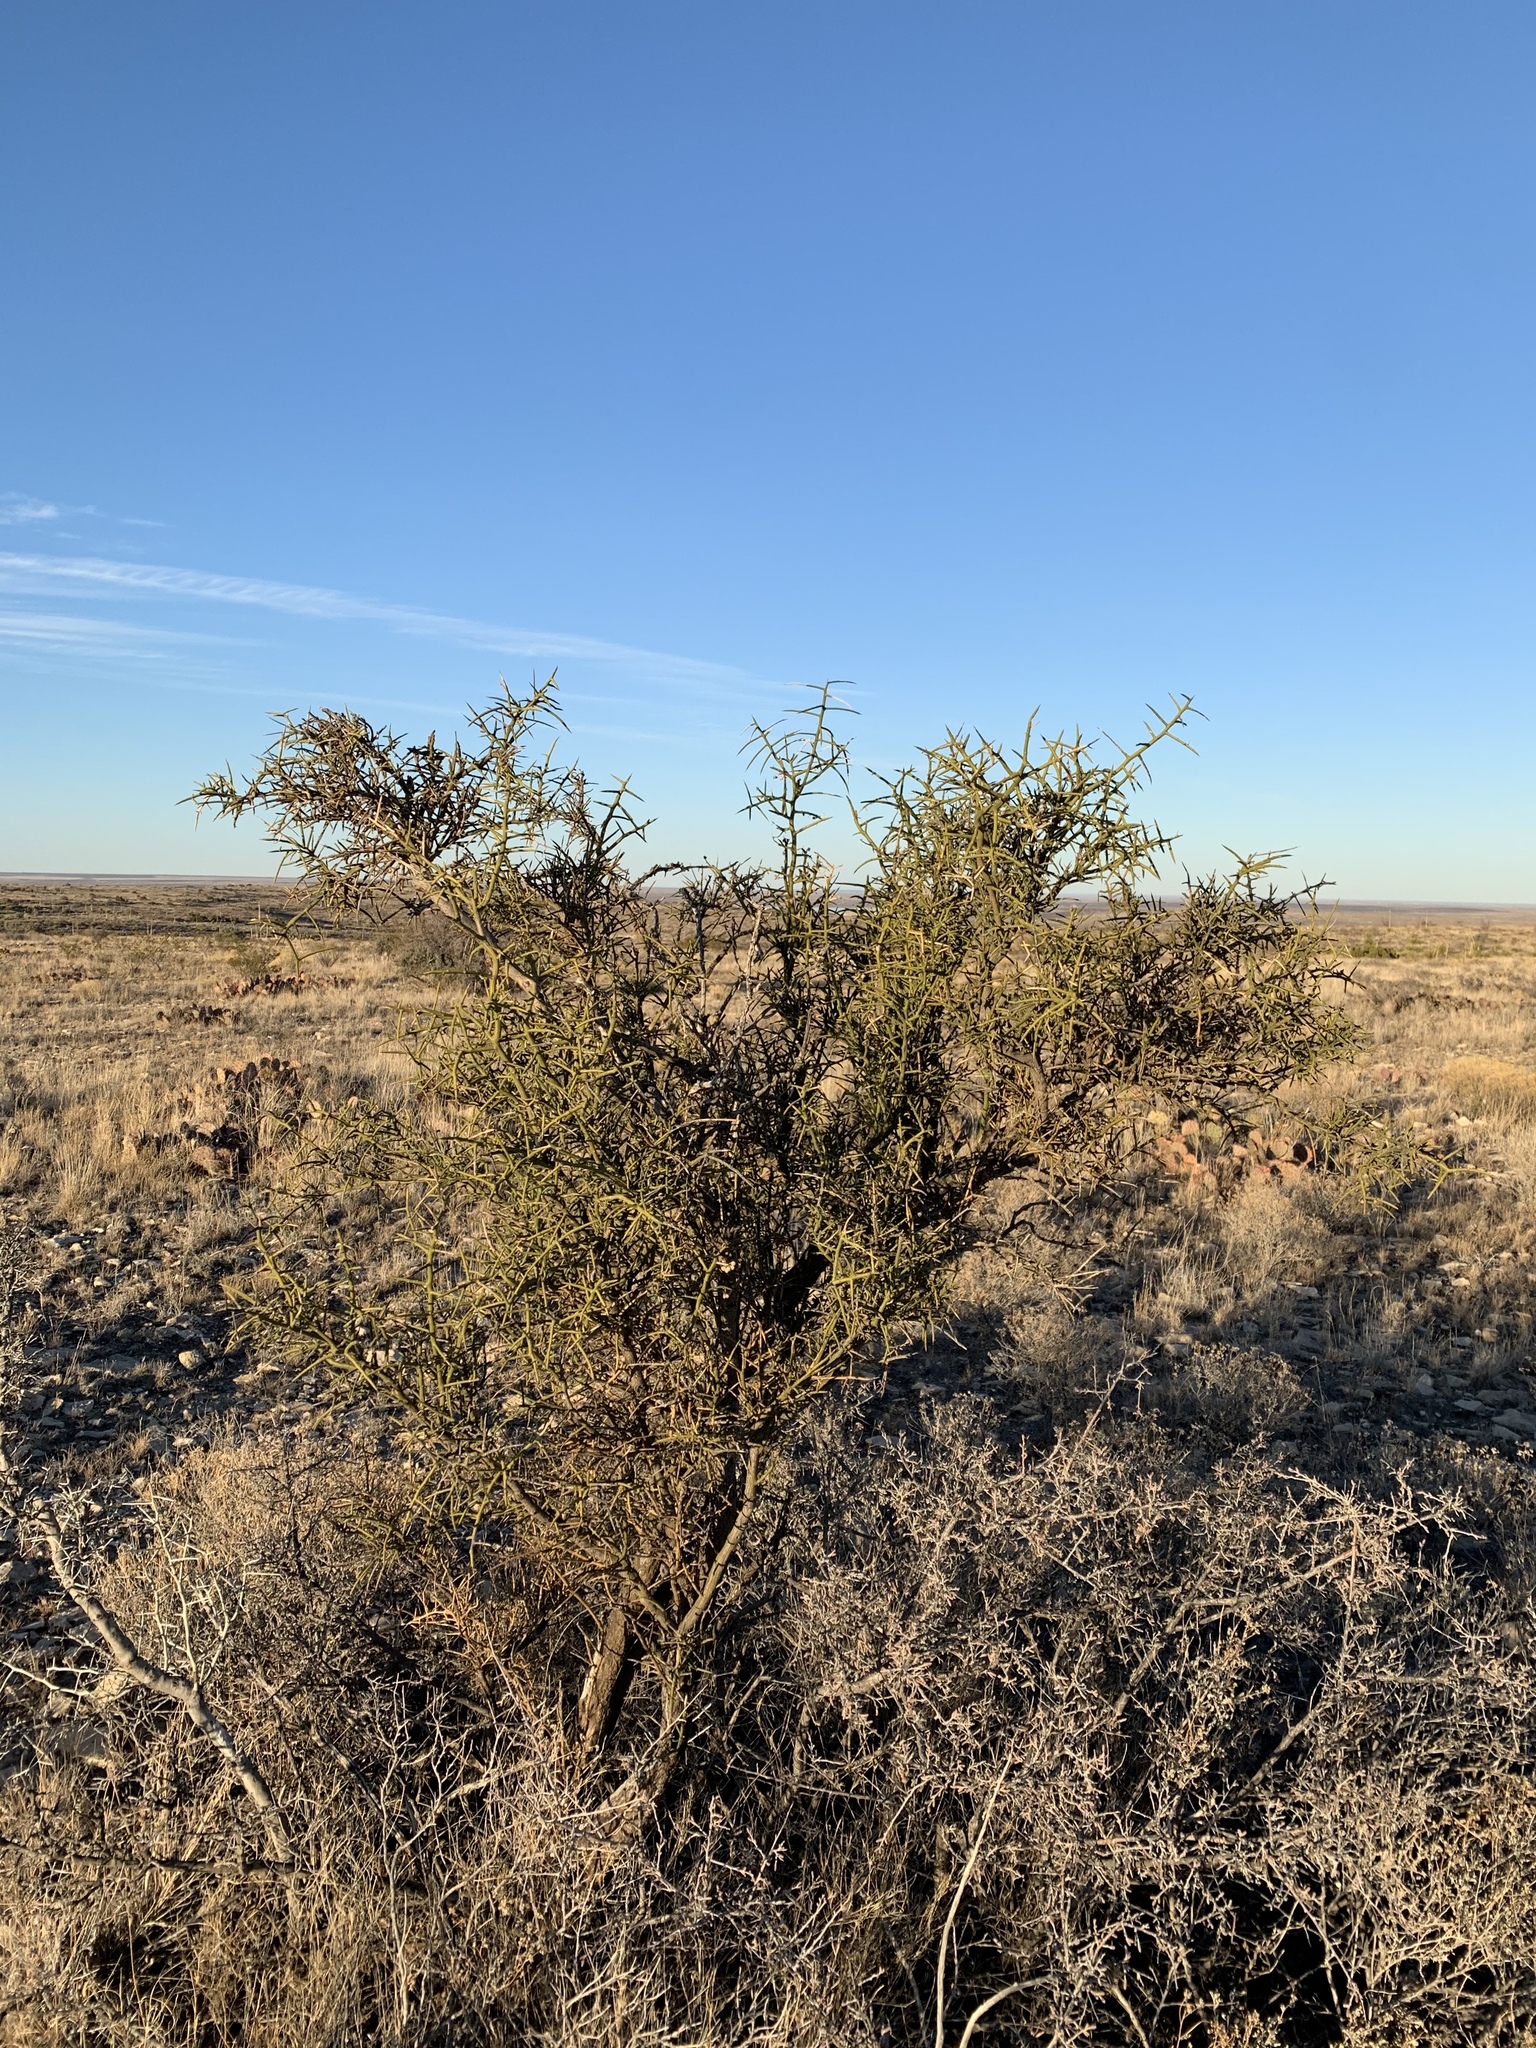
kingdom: Plantae
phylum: Tracheophyta
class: Magnoliopsida
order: Brassicales
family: Koeberliniaceae
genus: Koeberlinia
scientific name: Koeberlinia spinosa
